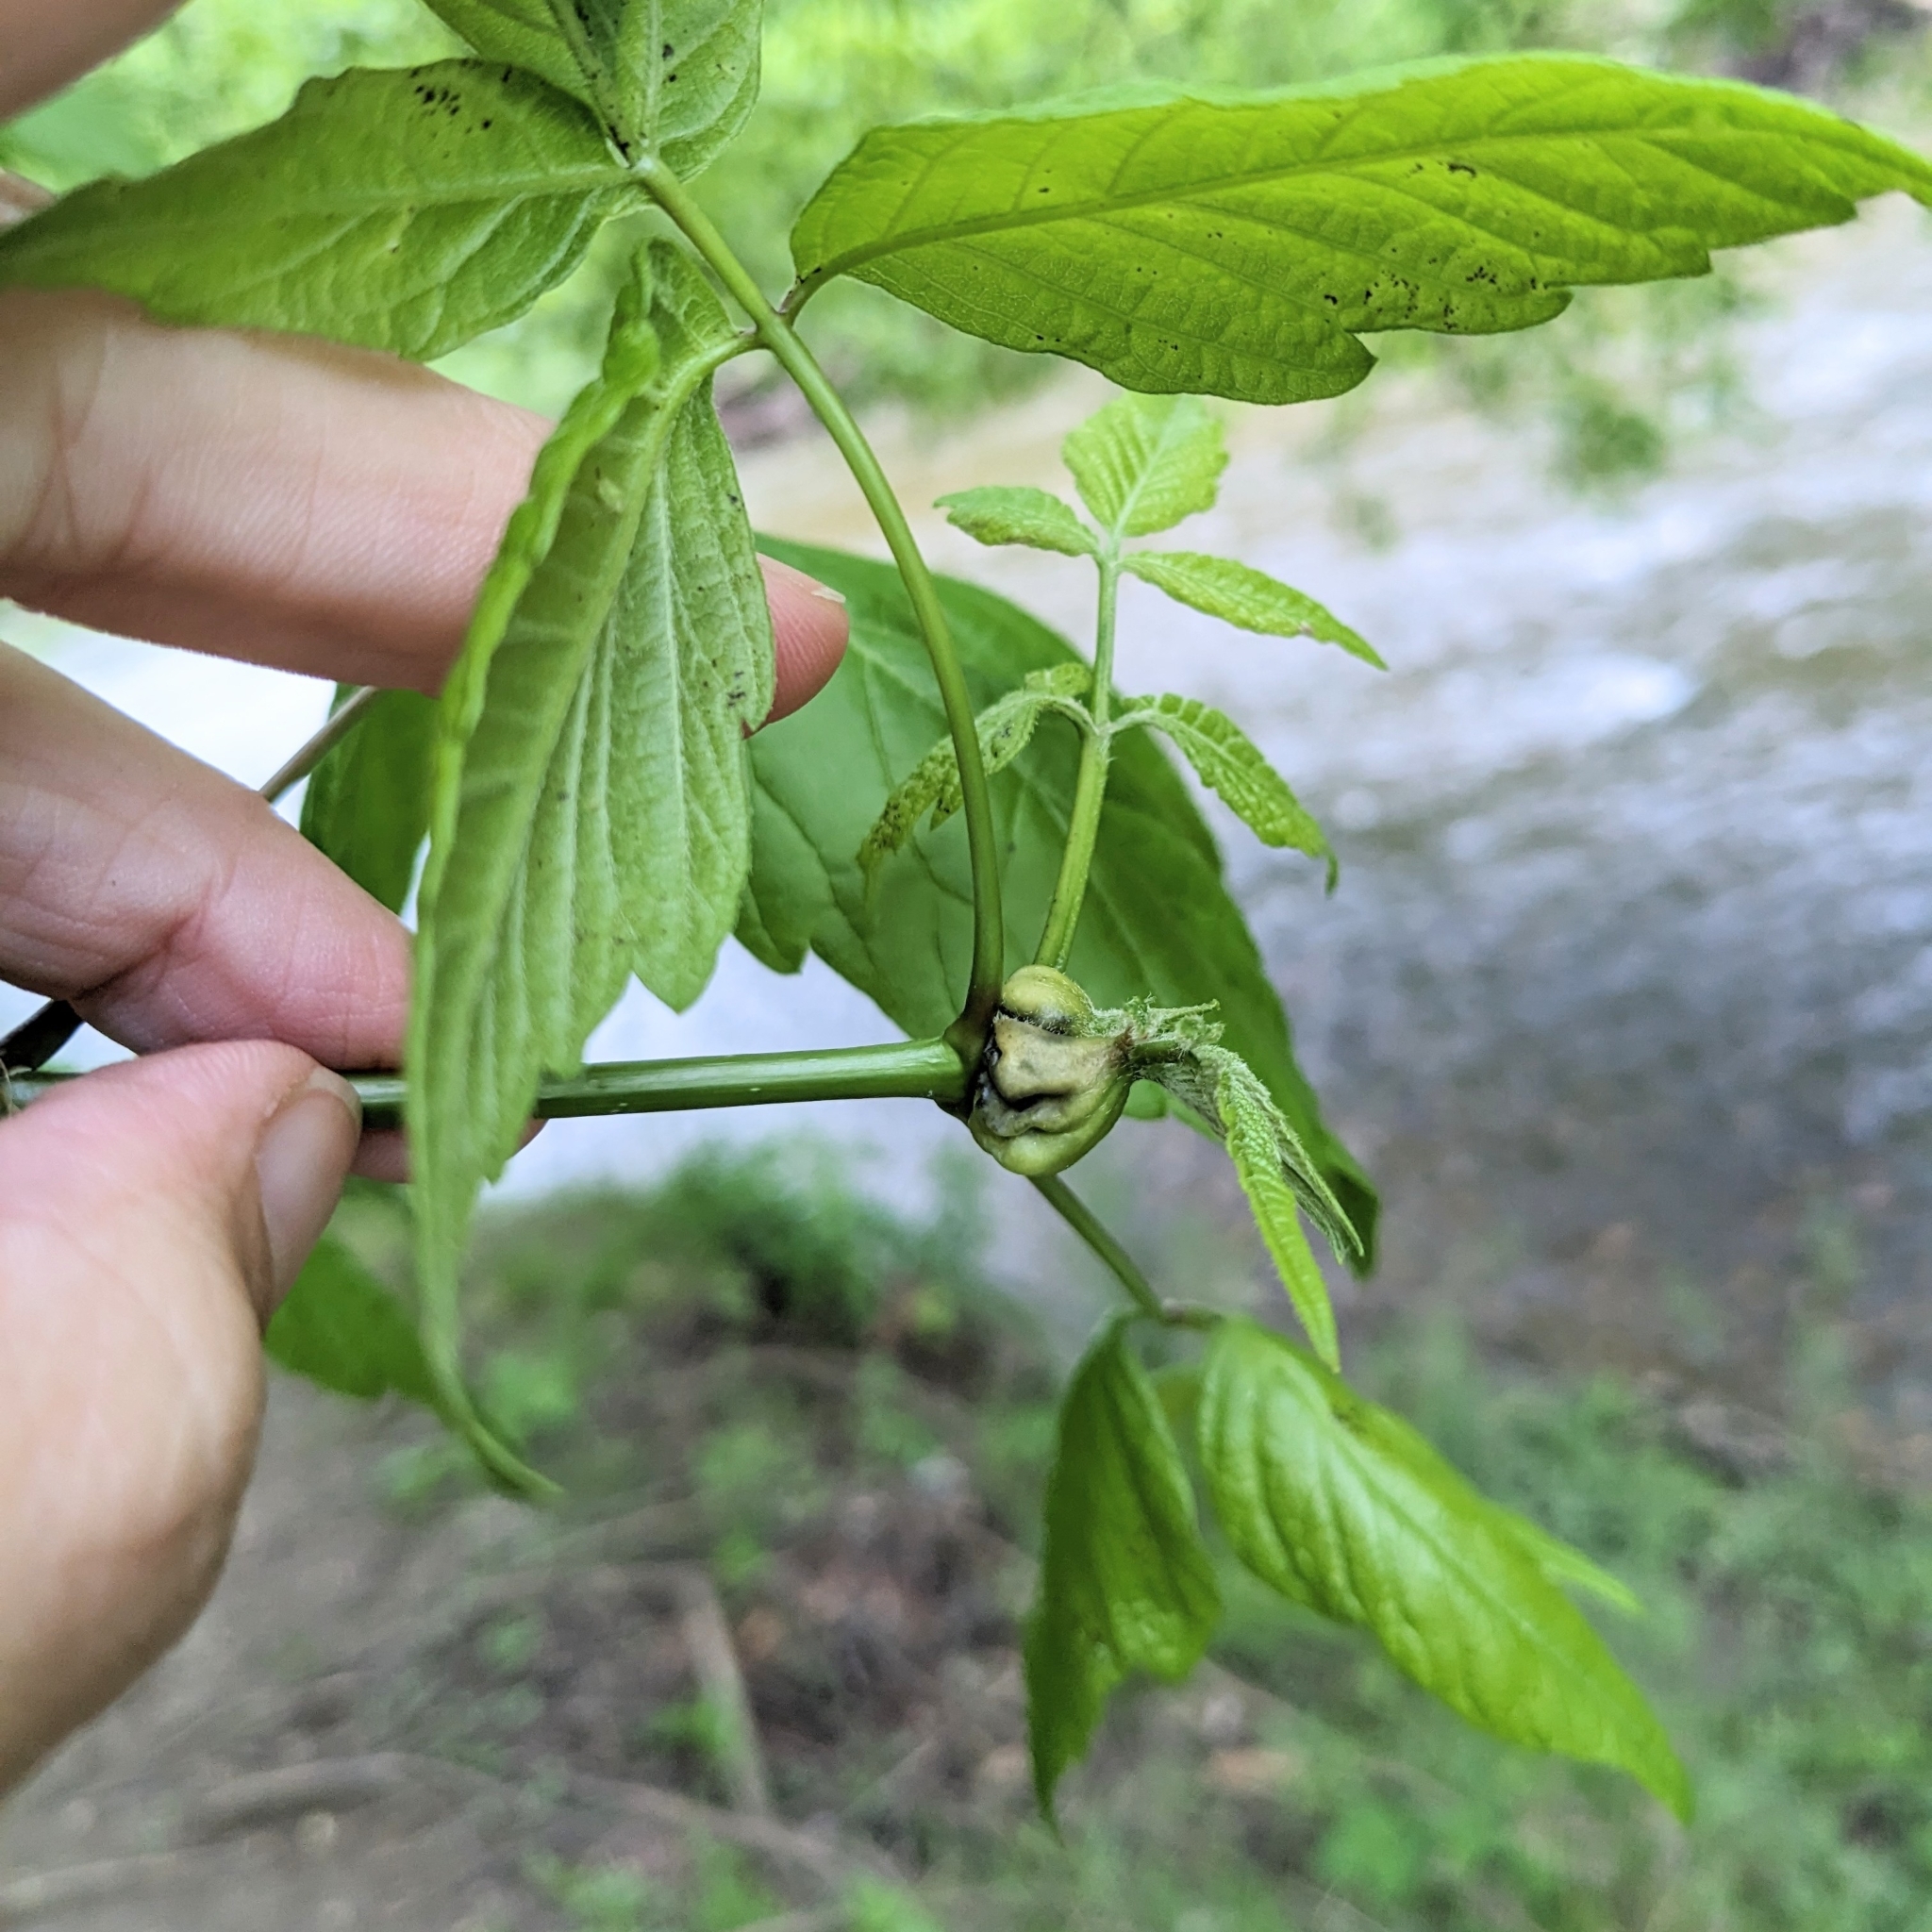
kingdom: Animalia
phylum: Arthropoda
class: Insecta
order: Diptera
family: Cecidomyiidae
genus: Contarinia
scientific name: Contarinia negundinis
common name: Boxelder budgall midge
